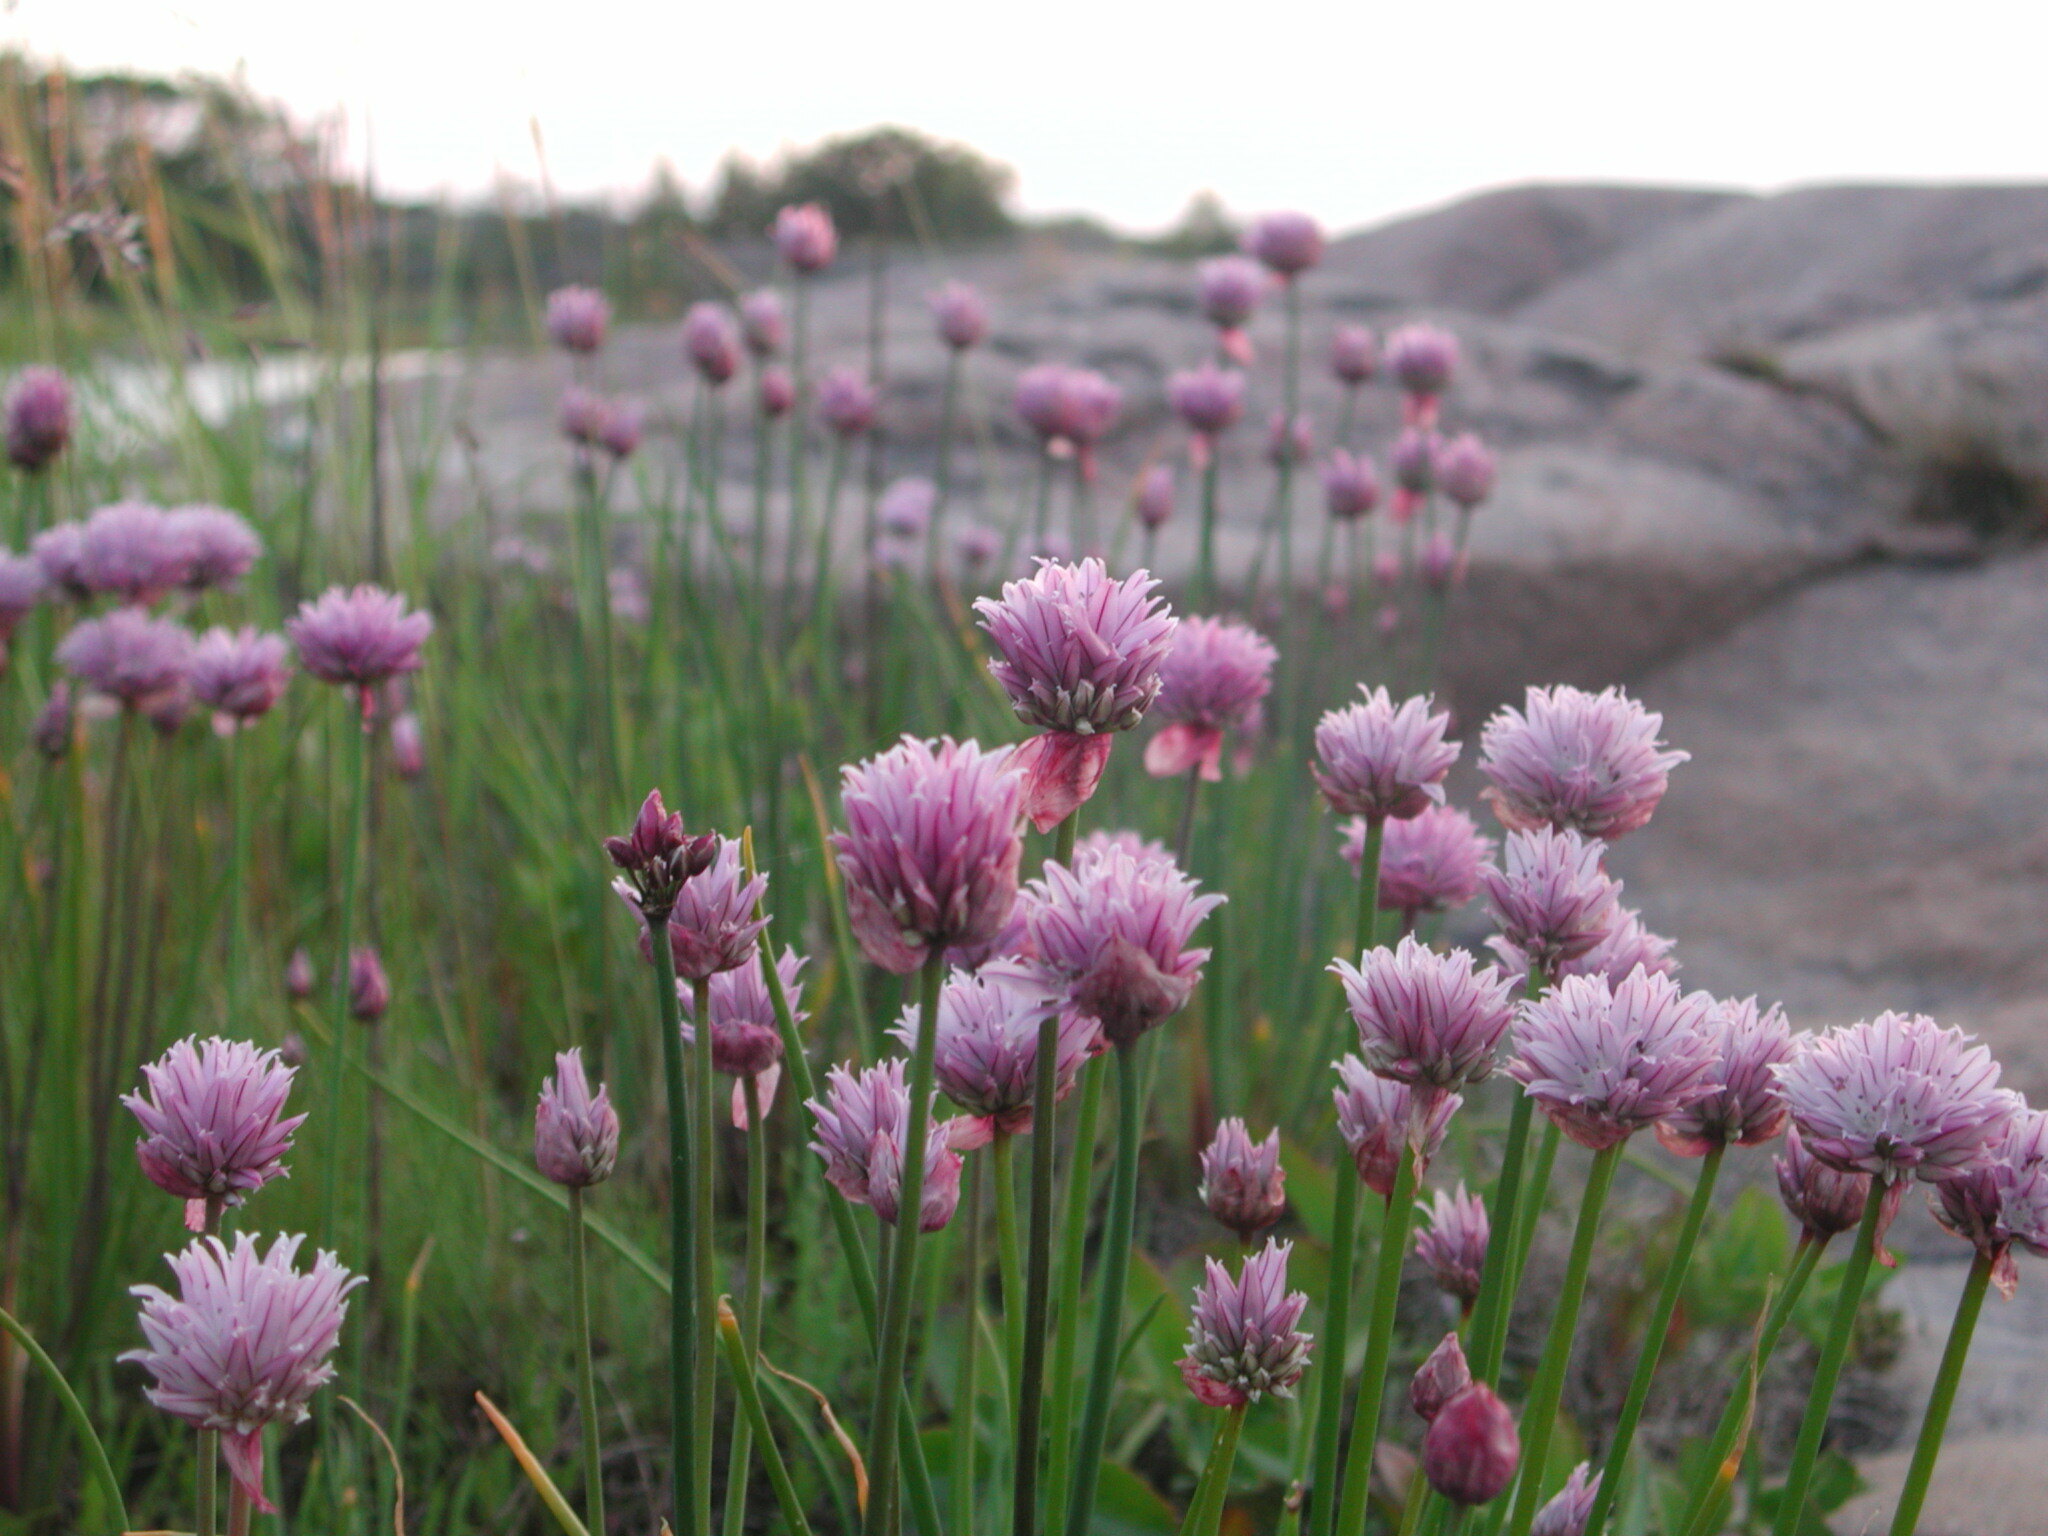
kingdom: Plantae
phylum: Tracheophyta
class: Liliopsida
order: Asparagales
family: Amaryllidaceae
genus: Allium
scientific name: Allium schoenoprasum
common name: Chives
